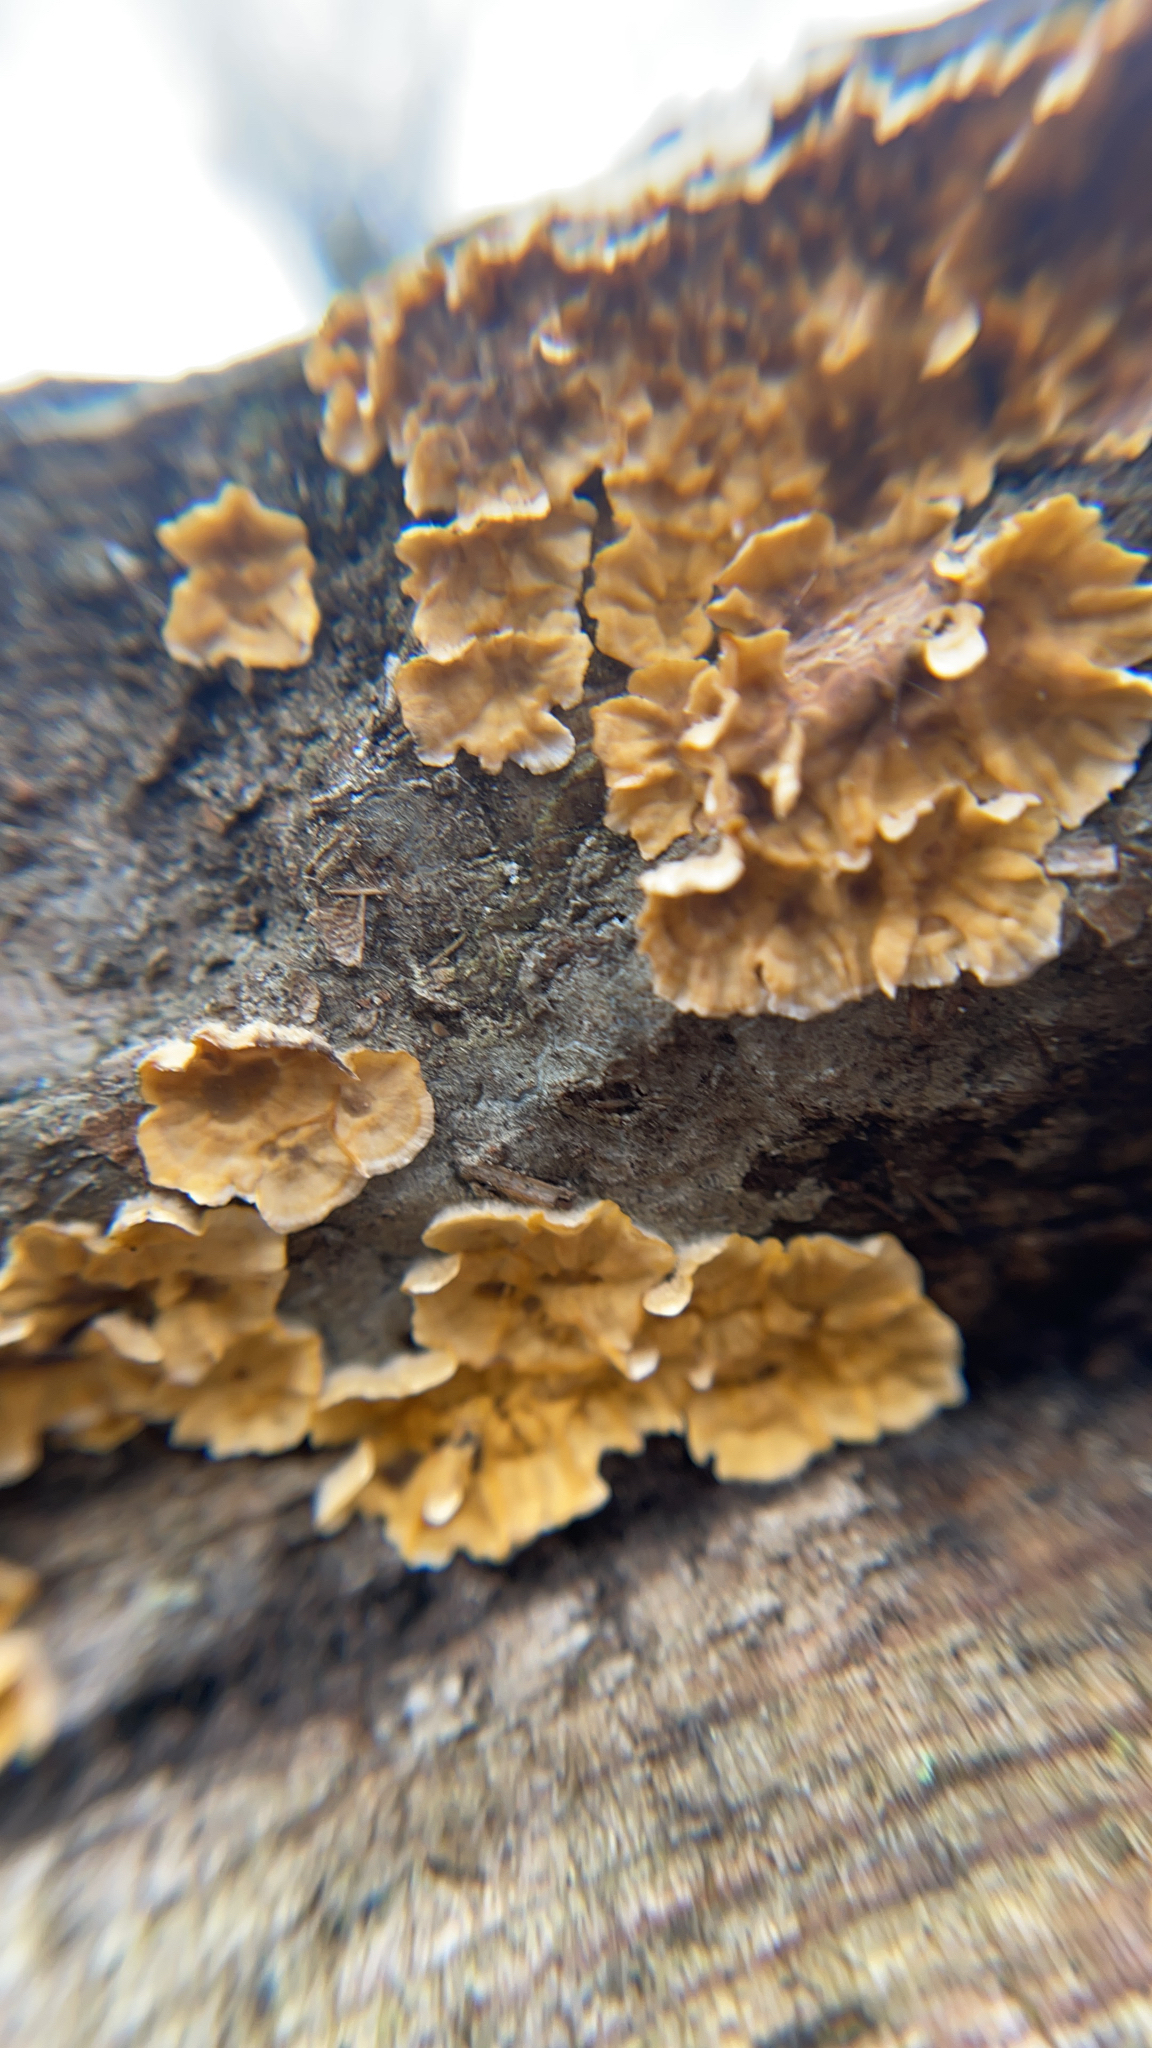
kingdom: Fungi
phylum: Basidiomycota
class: Agaricomycetes
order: Russulales
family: Stereaceae
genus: Stereum
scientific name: Stereum complicatum
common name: Crowded parchment
